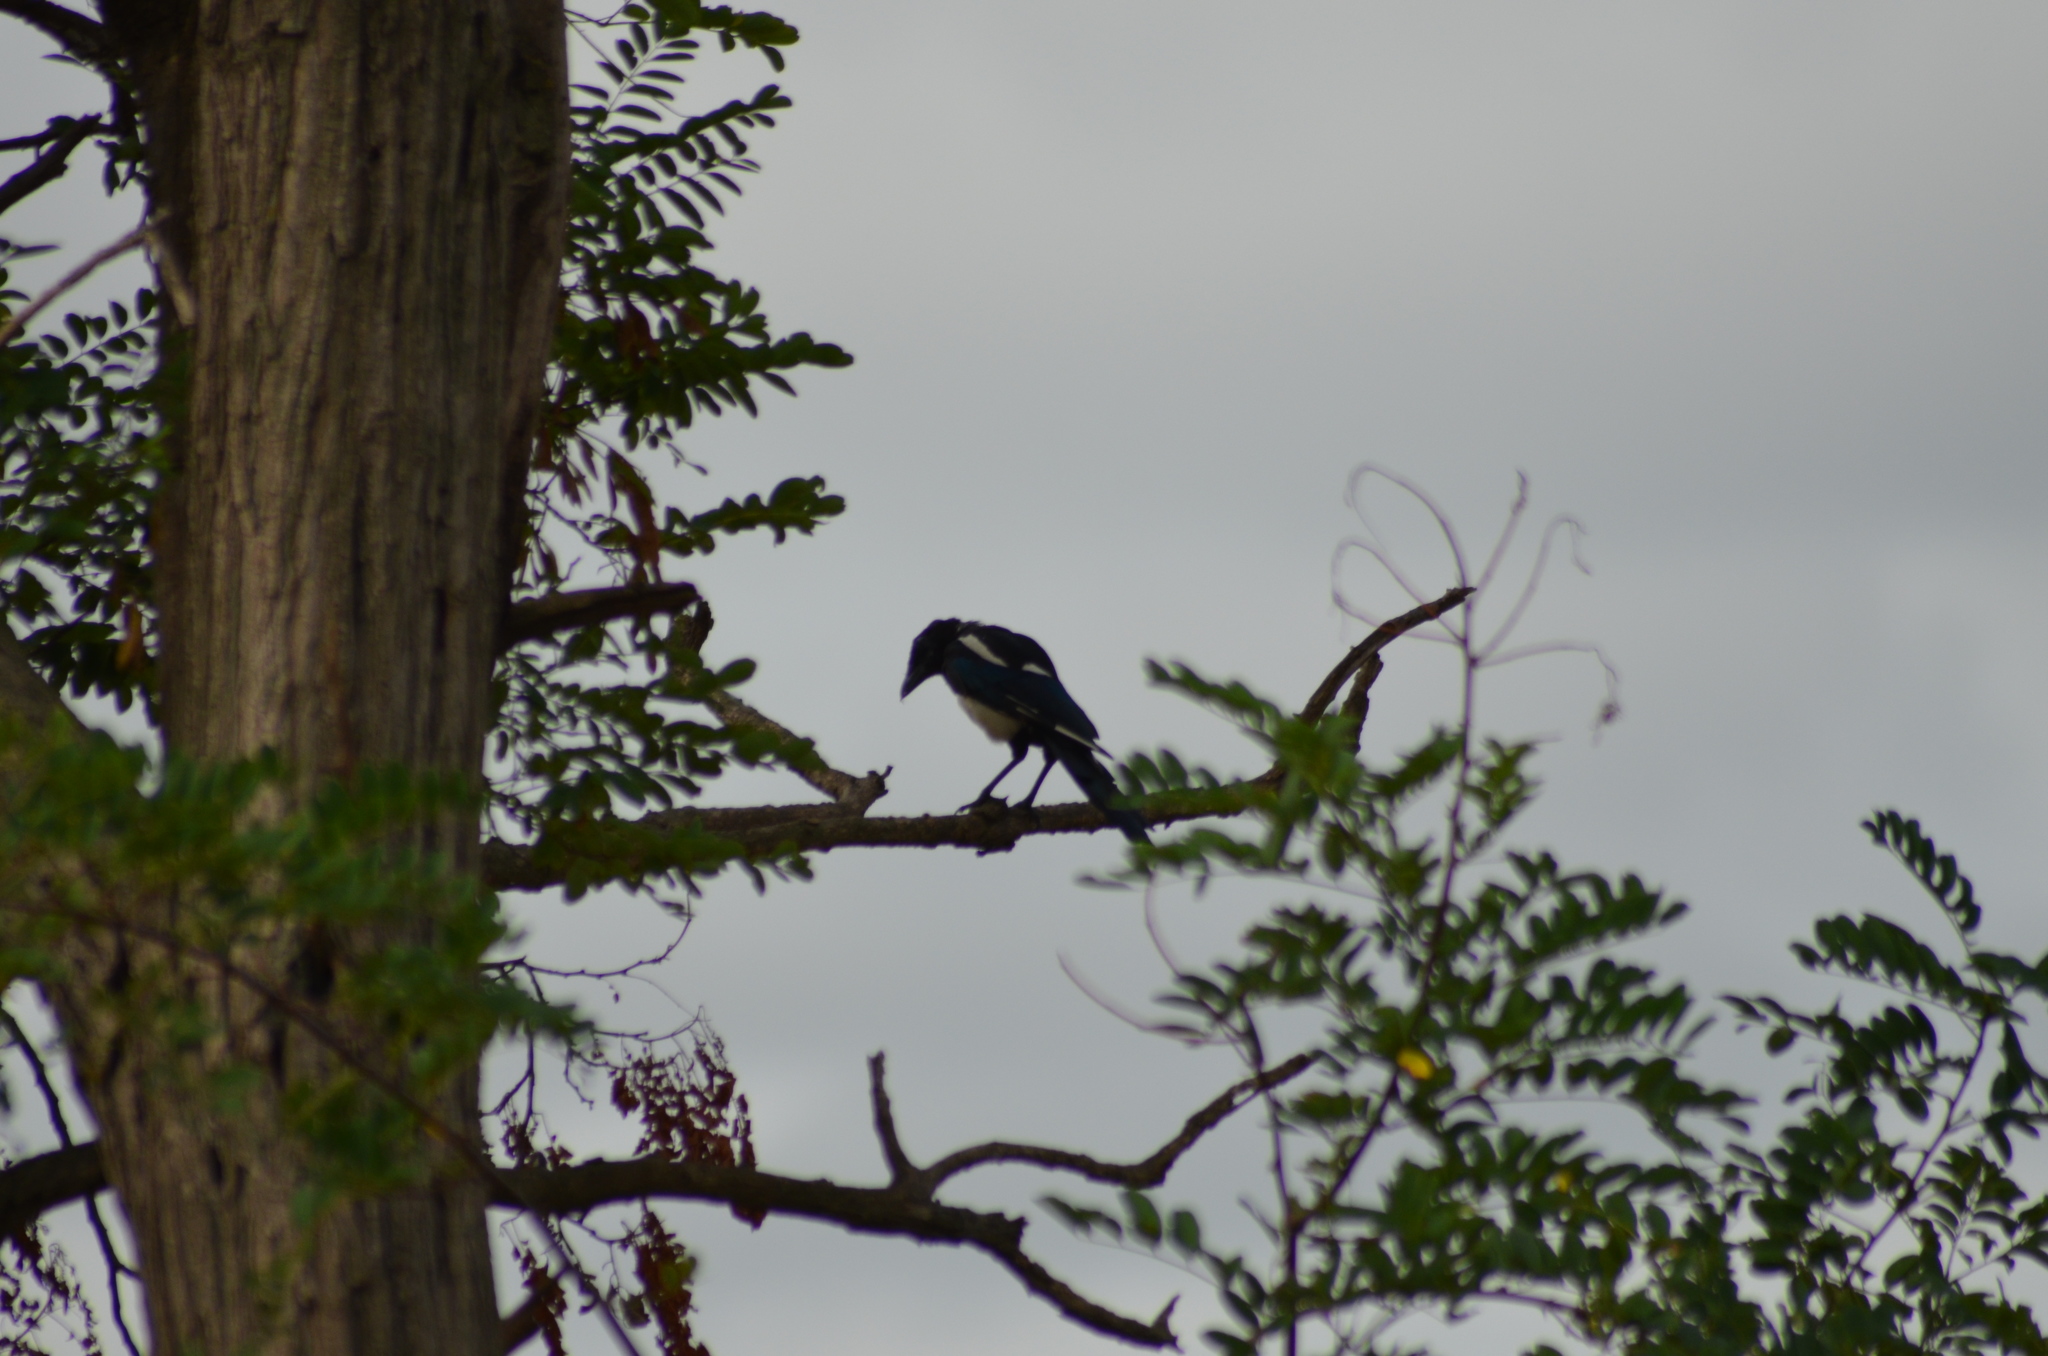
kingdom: Animalia
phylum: Chordata
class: Aves
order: Passeriformes
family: Corvidae
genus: Pica
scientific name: Pica pica
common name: Eurasian magpie
